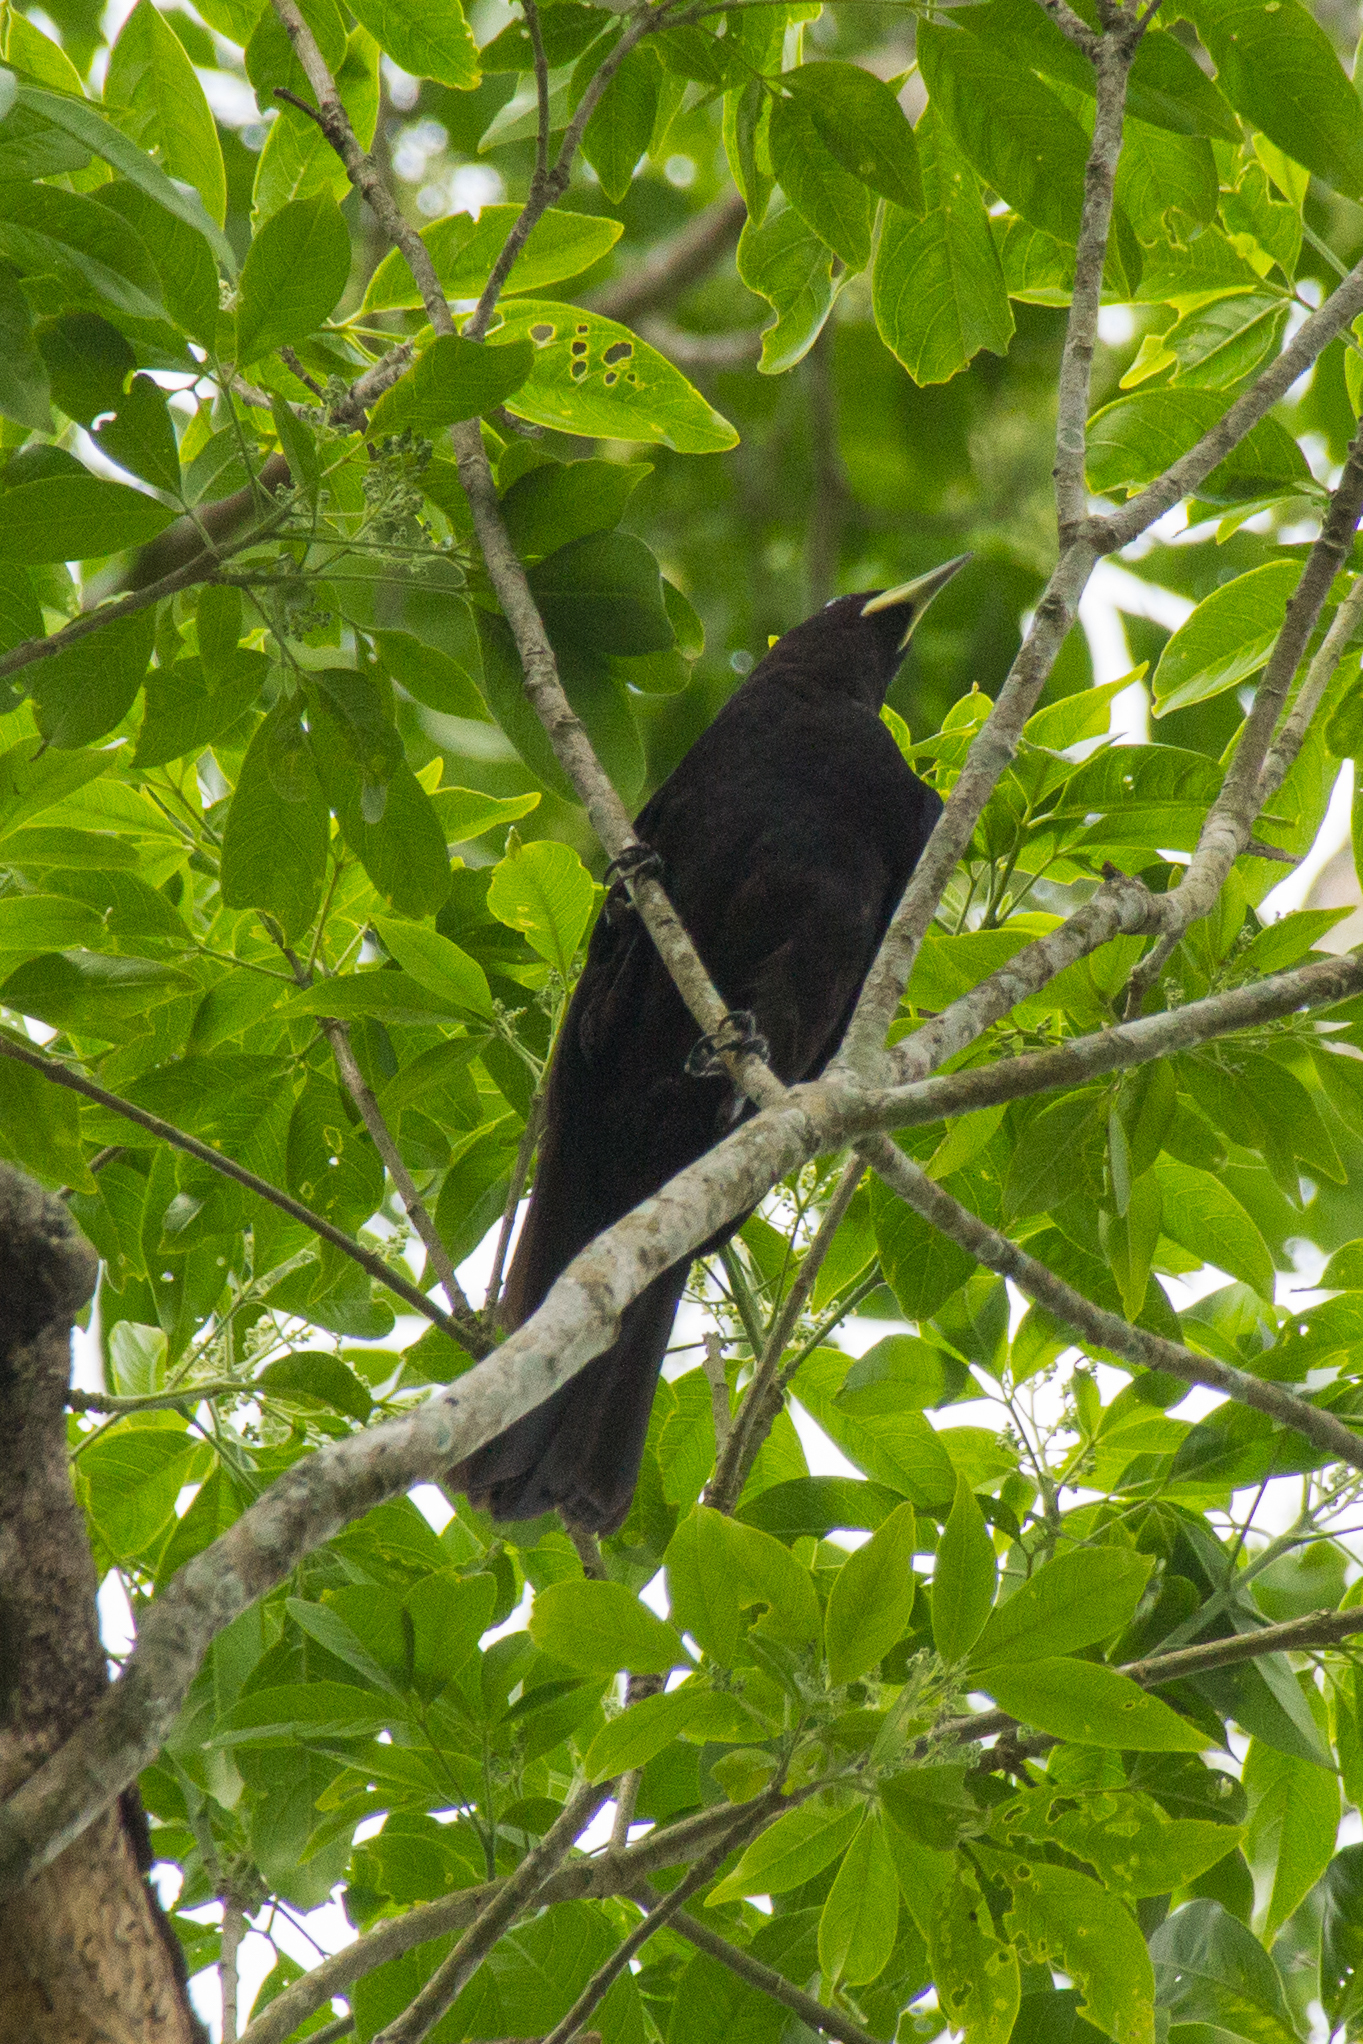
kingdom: Animalia
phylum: Chordata
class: Aves
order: Passeriformes
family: Icteridae
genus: Cacicus
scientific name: Cacicus haemorrhous
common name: Red-rumped cacique
